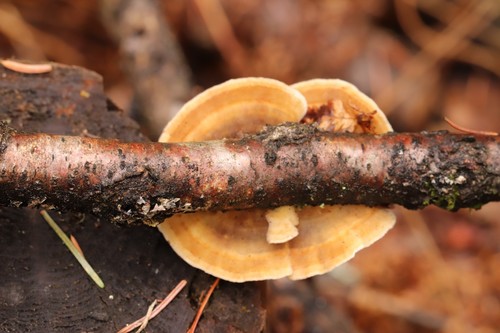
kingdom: Fungi
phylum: Basidiomycota
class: Agaricomycetes
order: Polyporales
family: Polyporaceae
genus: Trametes
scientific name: Trametes ochracea
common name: Ochre bracket
